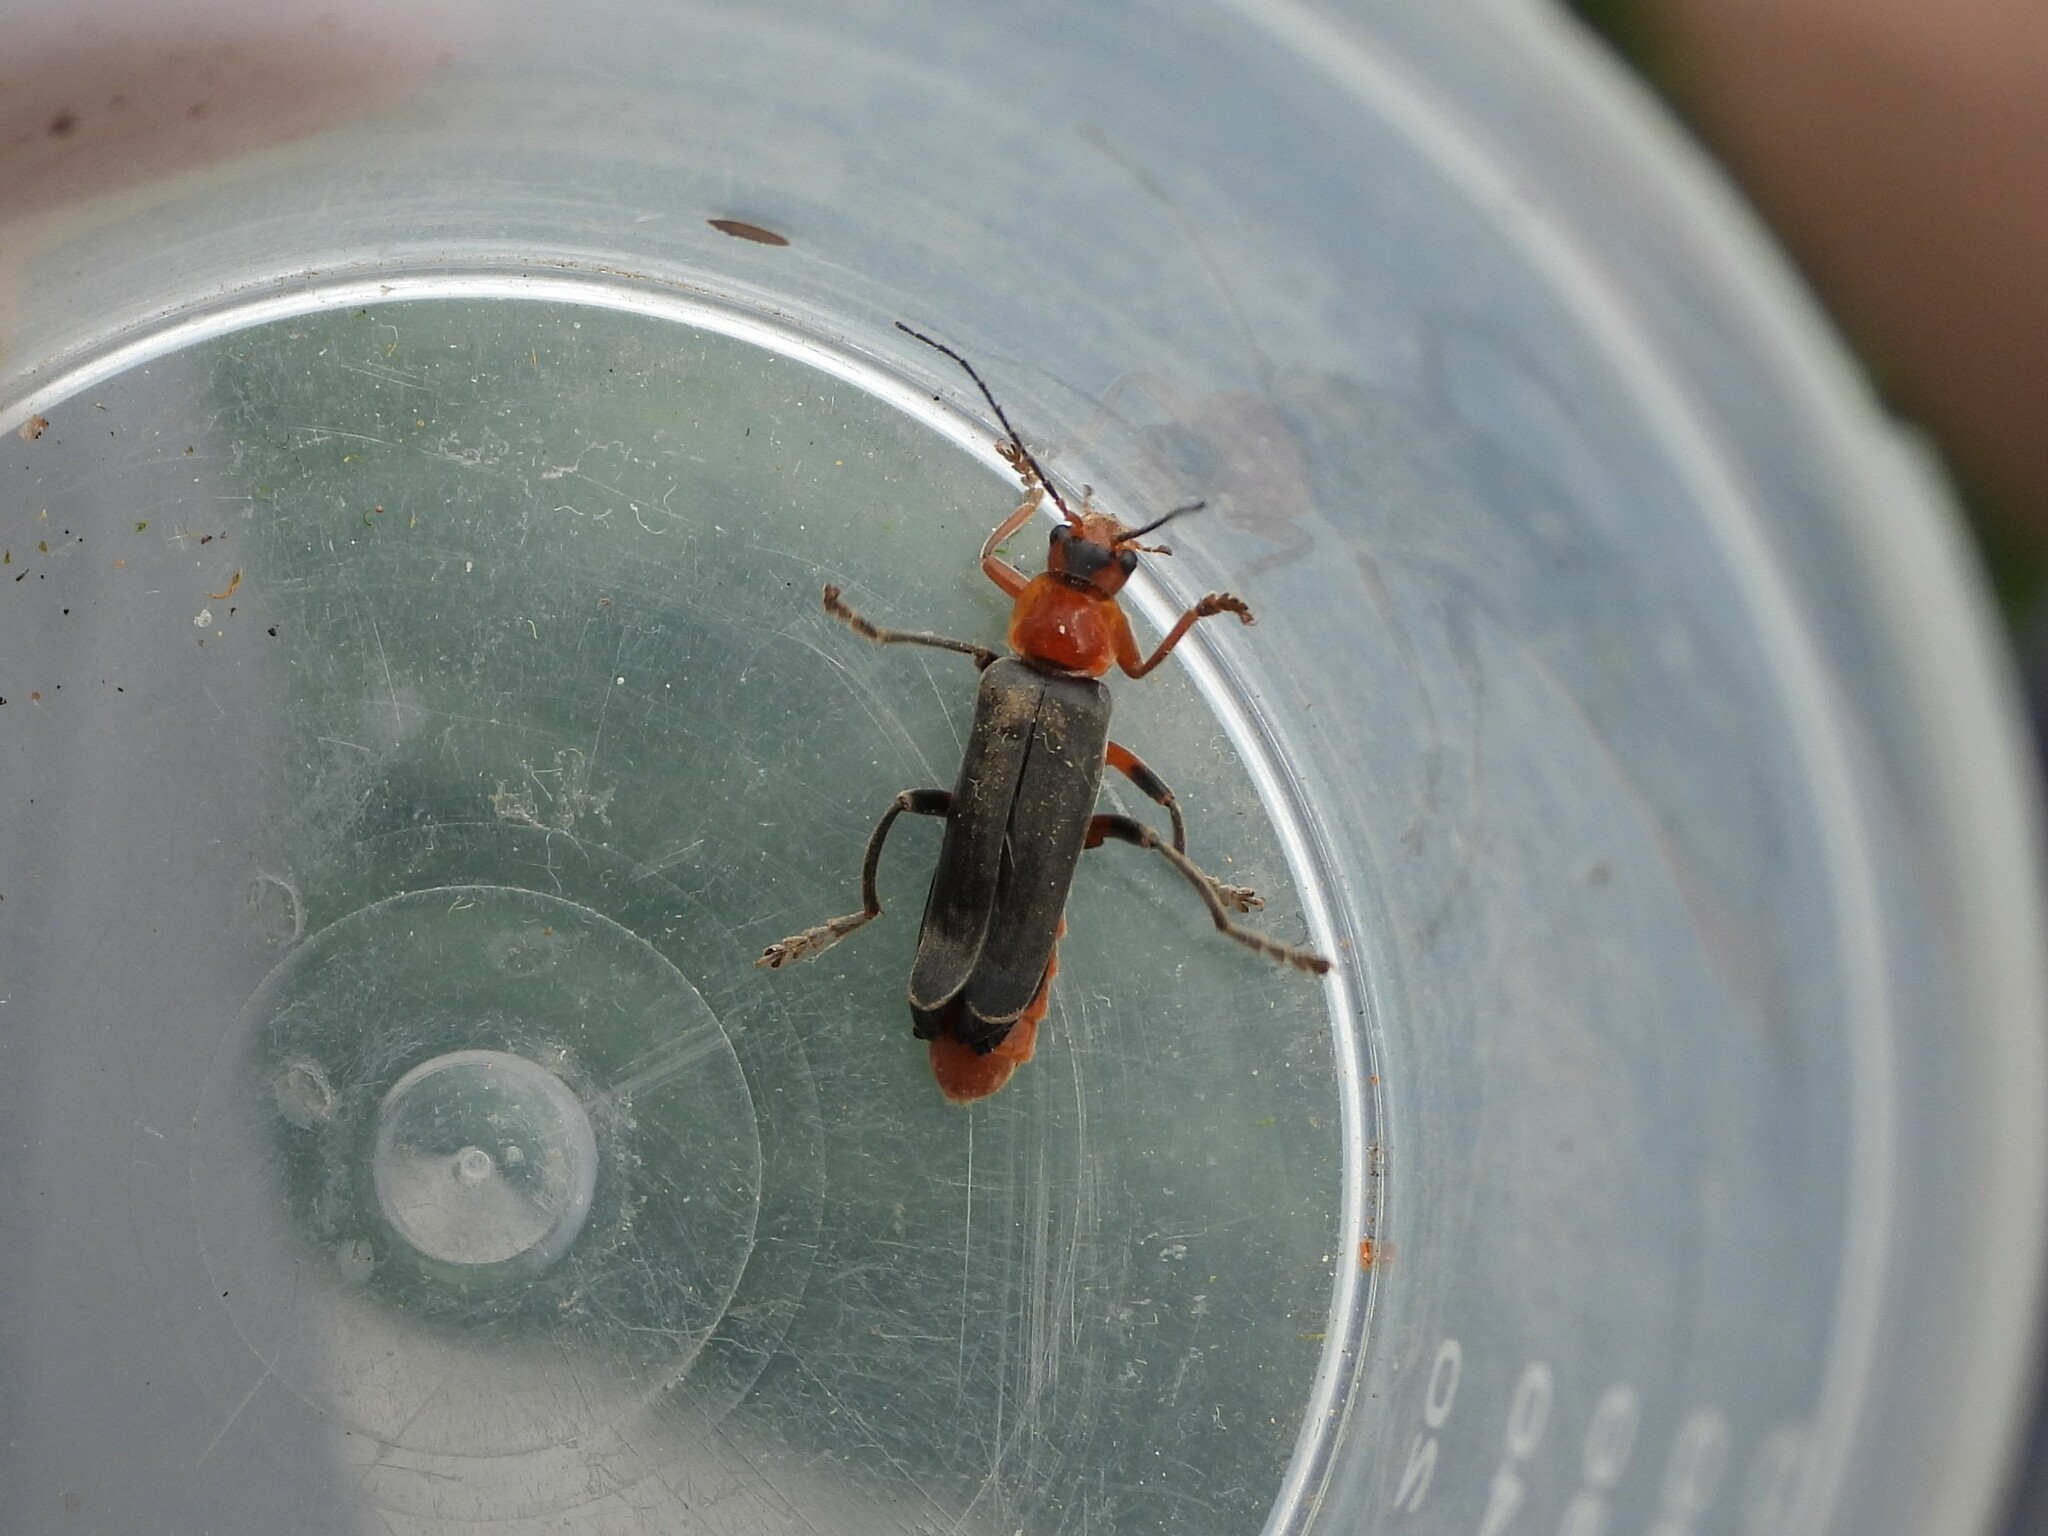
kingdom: Animalia
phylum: Arthropoda
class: Insecta
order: Coleoptera
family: Cantharidae
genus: Cantharis
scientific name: Cantharis livida
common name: Livid soldier beetle
